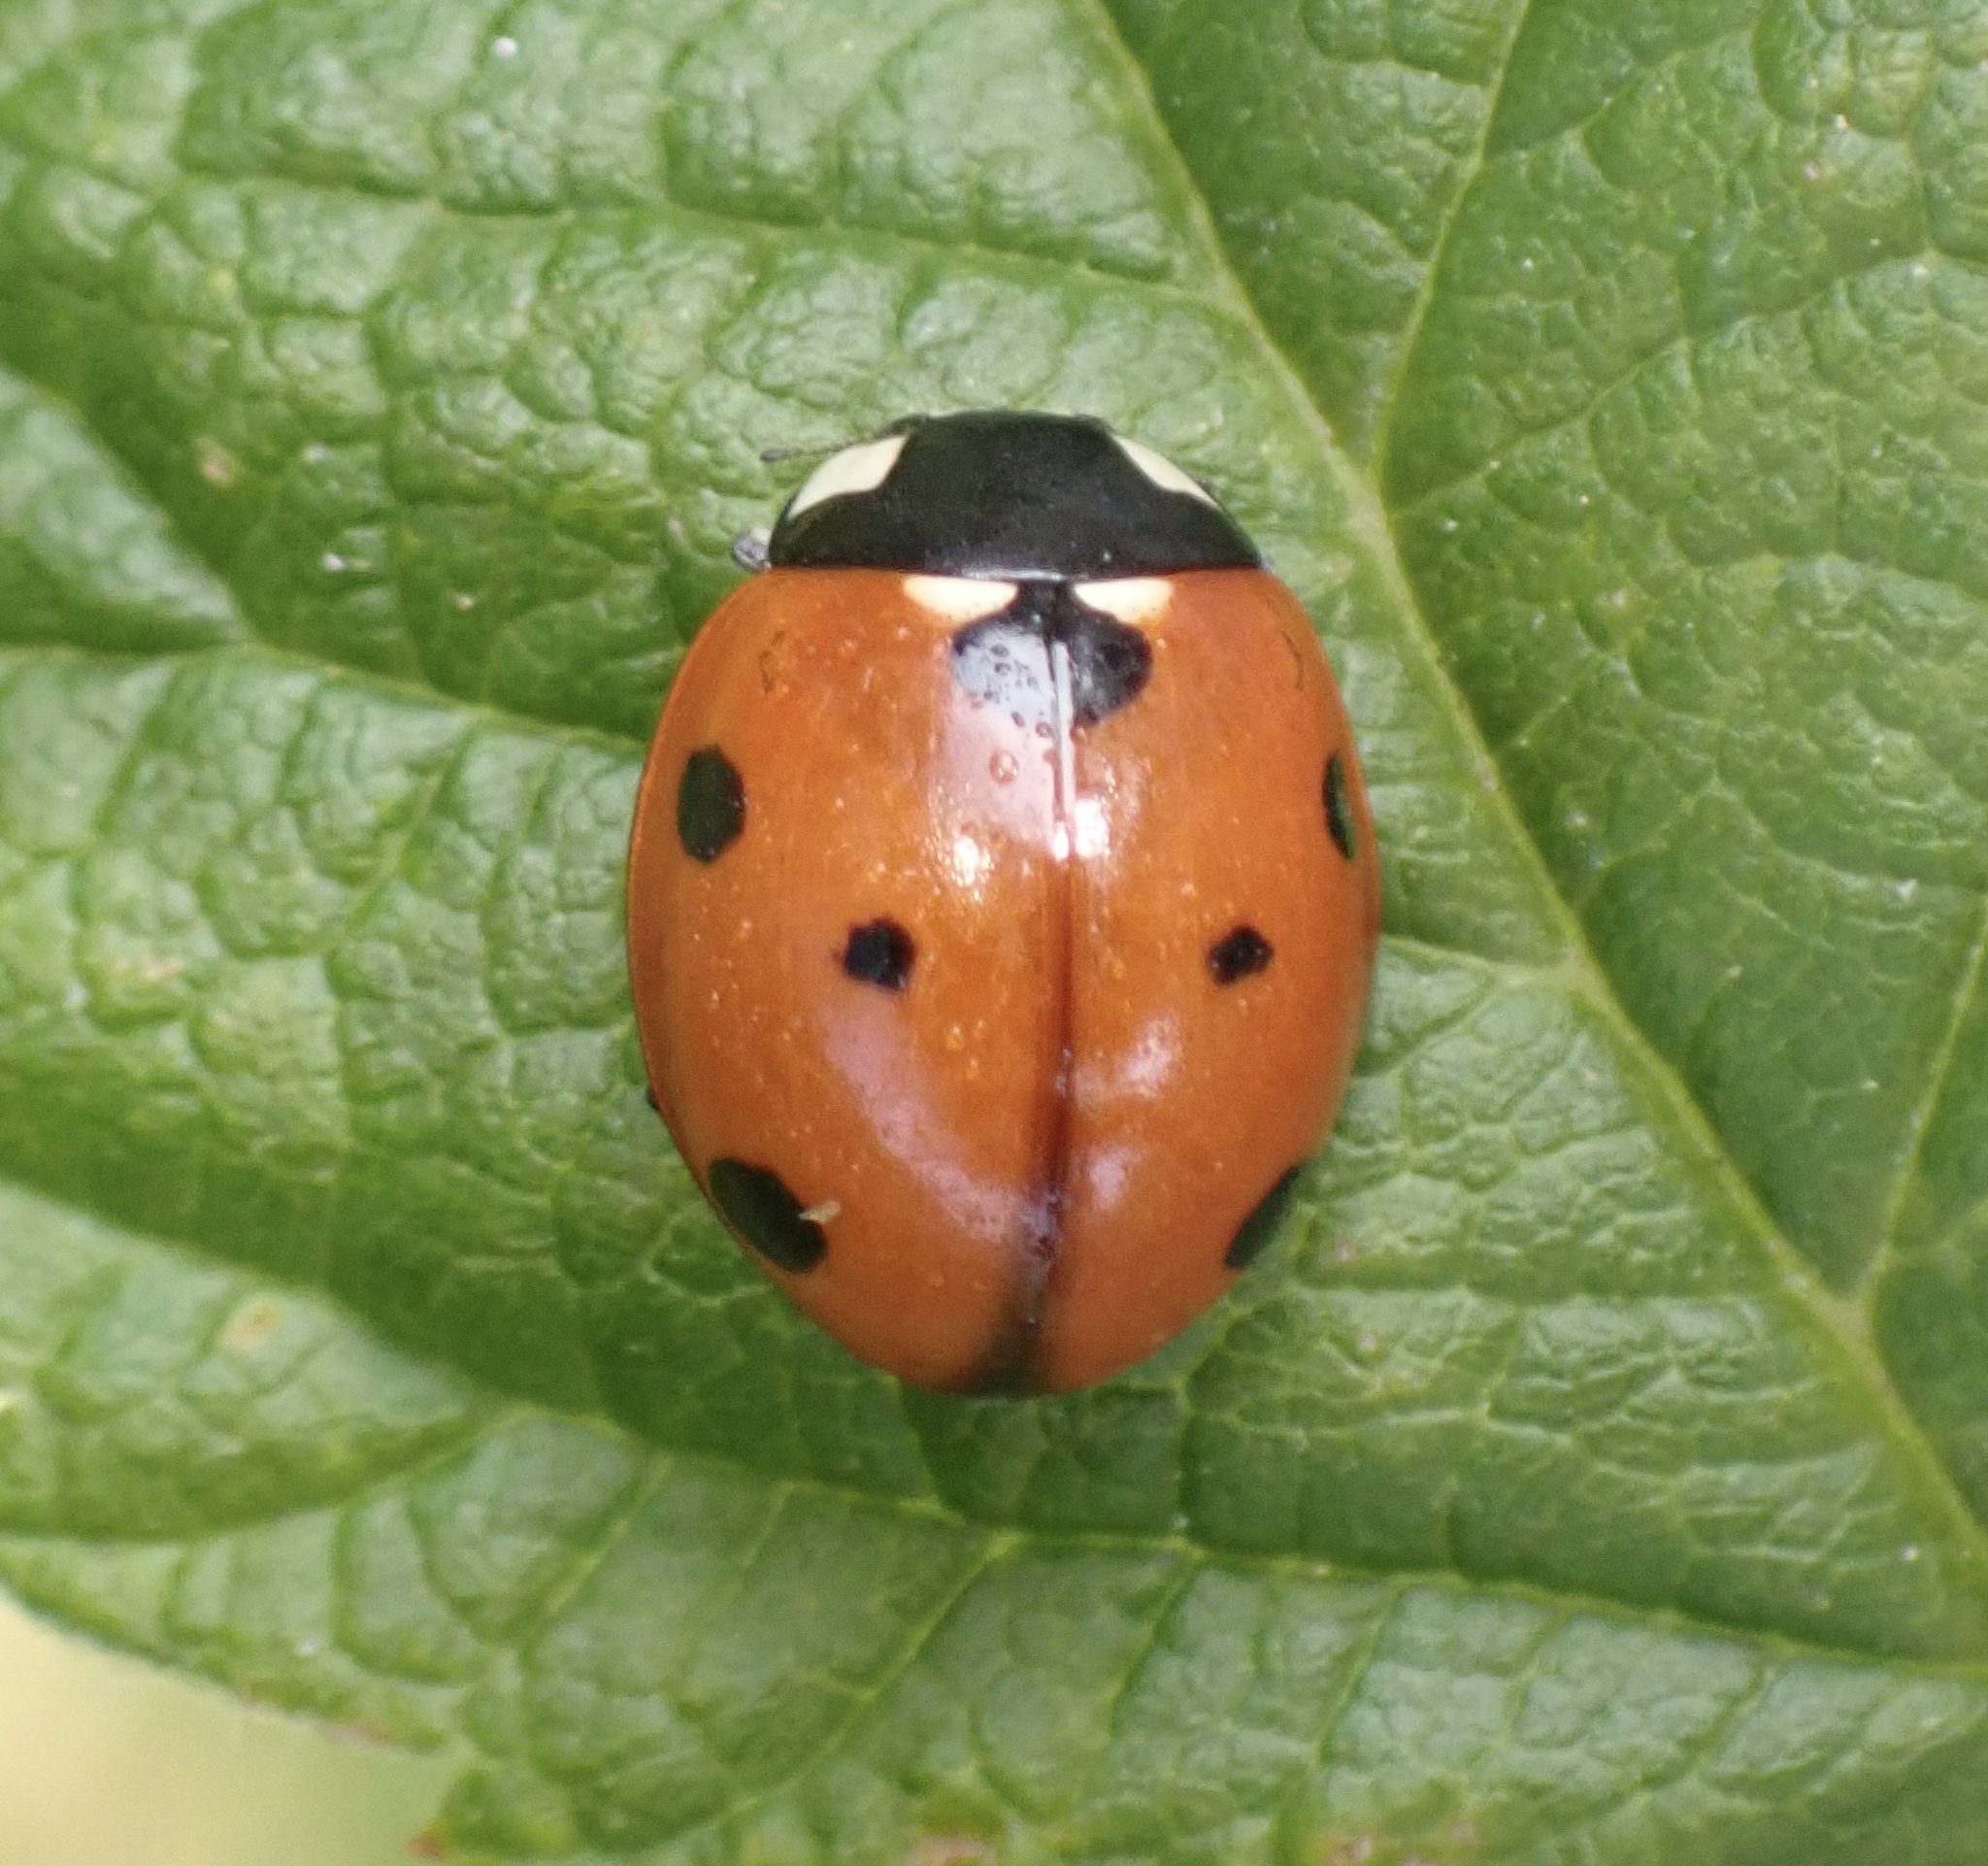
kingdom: Animalia
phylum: Arthropoda
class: Insecta
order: Coleoptera
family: Coccinellidae
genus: Coccinella
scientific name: Coccinella septempunctata
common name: Sevenspotted lady beetle
